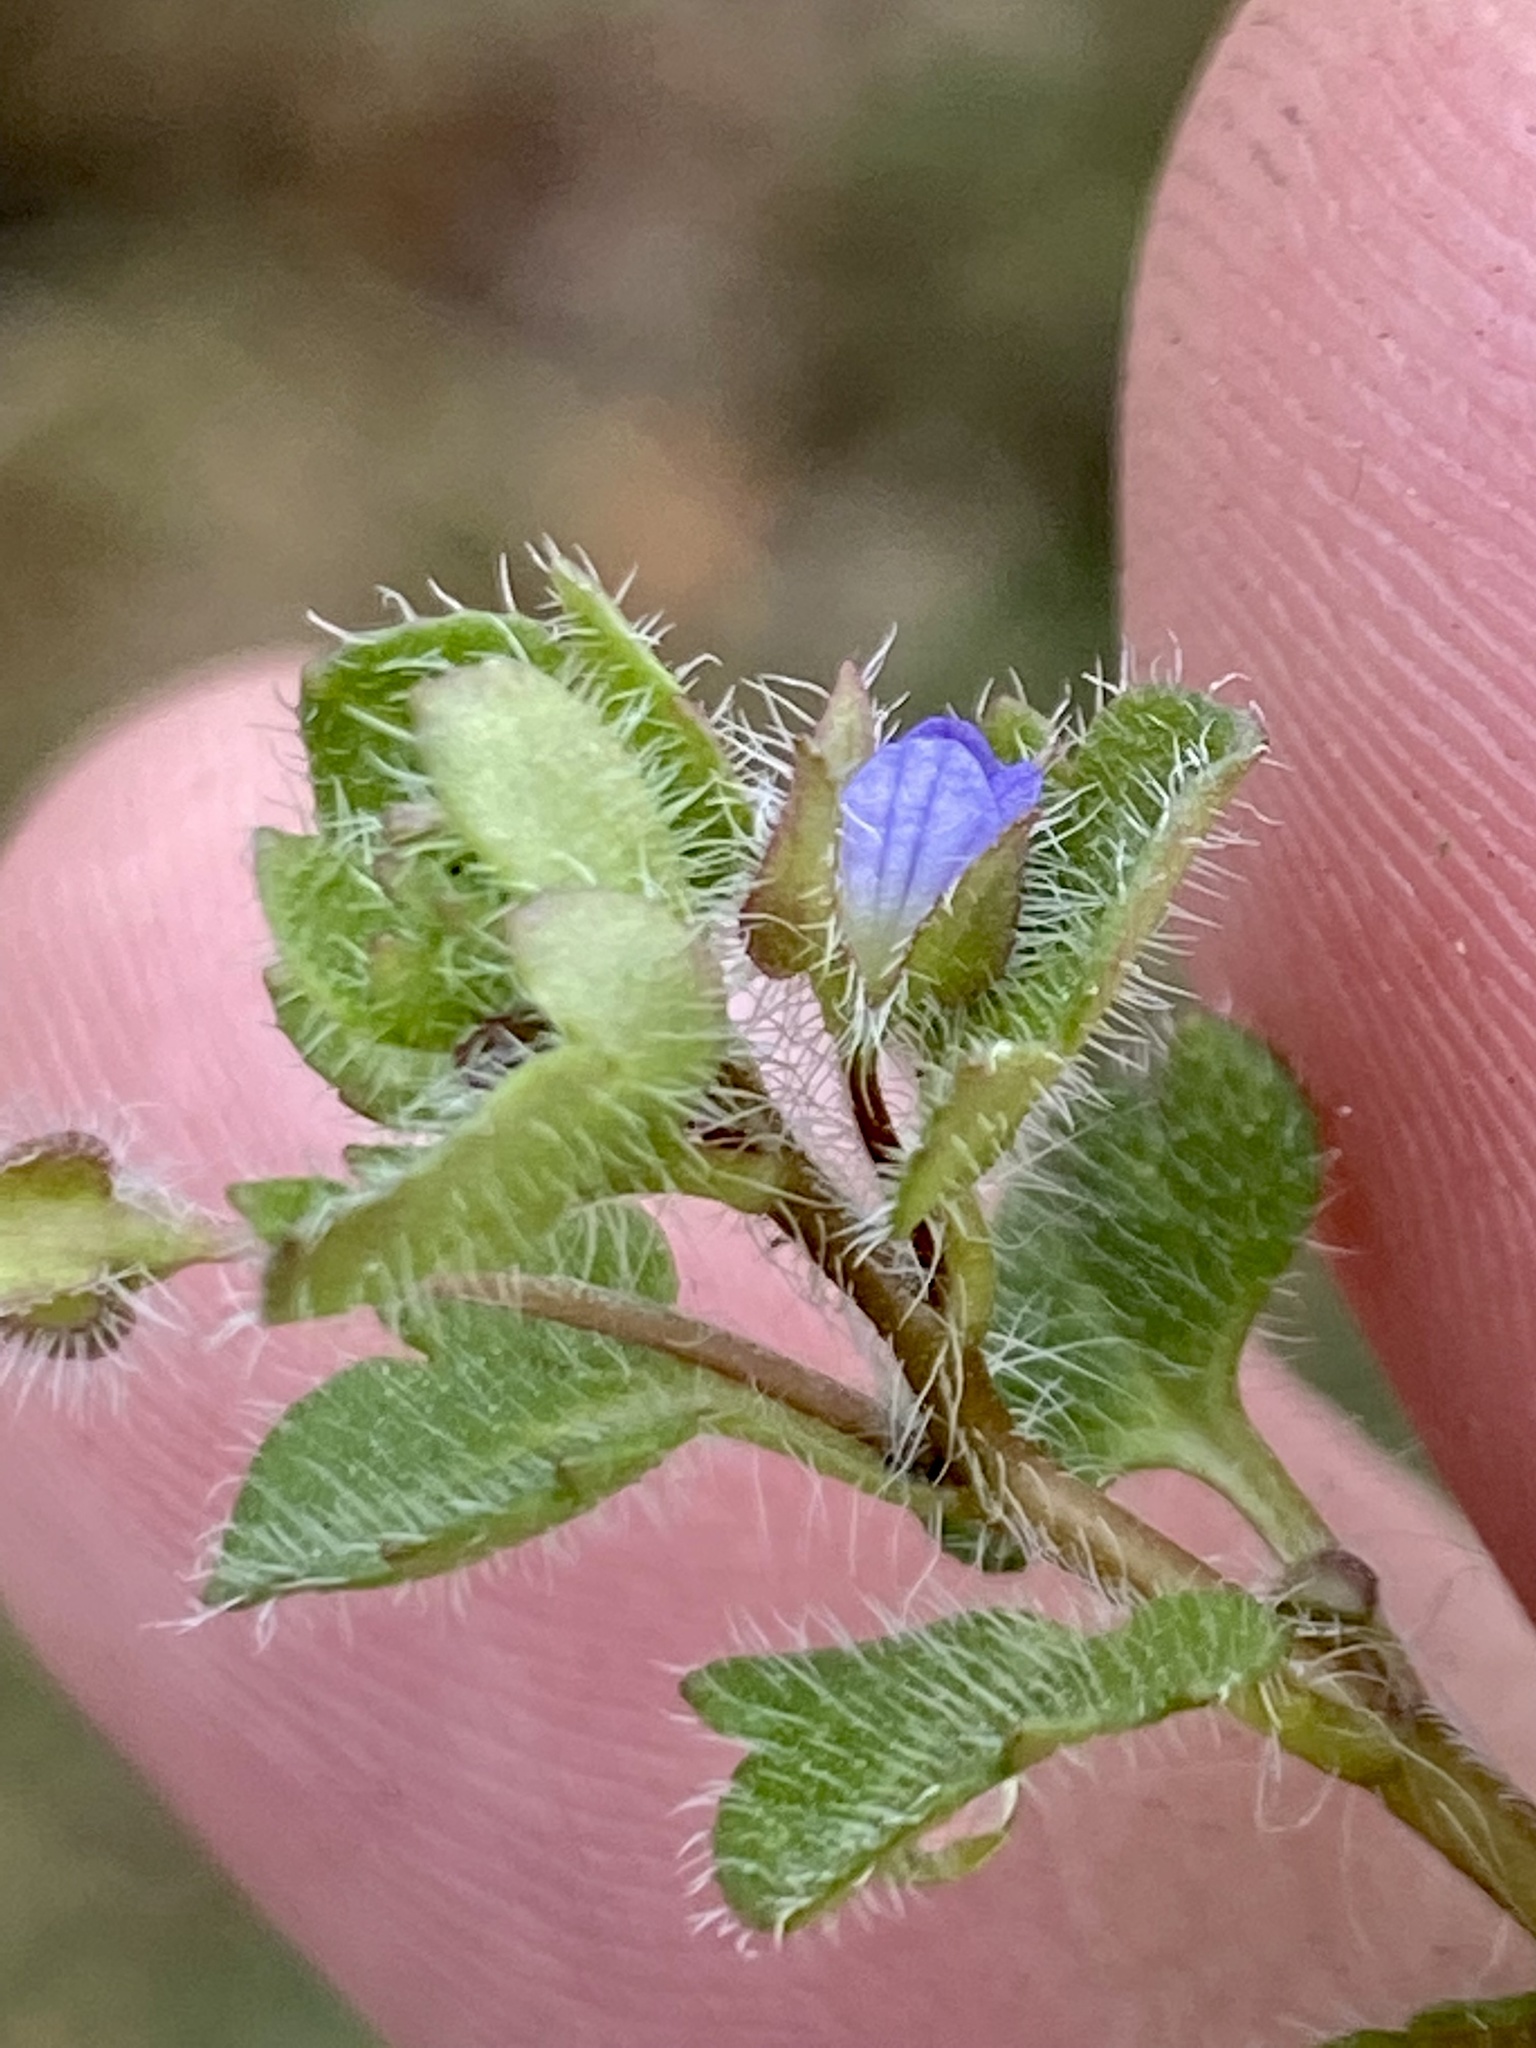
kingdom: Plantae
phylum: Tracheophyta
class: Magnoliopsida
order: Lamiales
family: Plantaginaceae
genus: Veronica
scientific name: Veronica hederifolia
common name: Ivy-leaved speedwell
